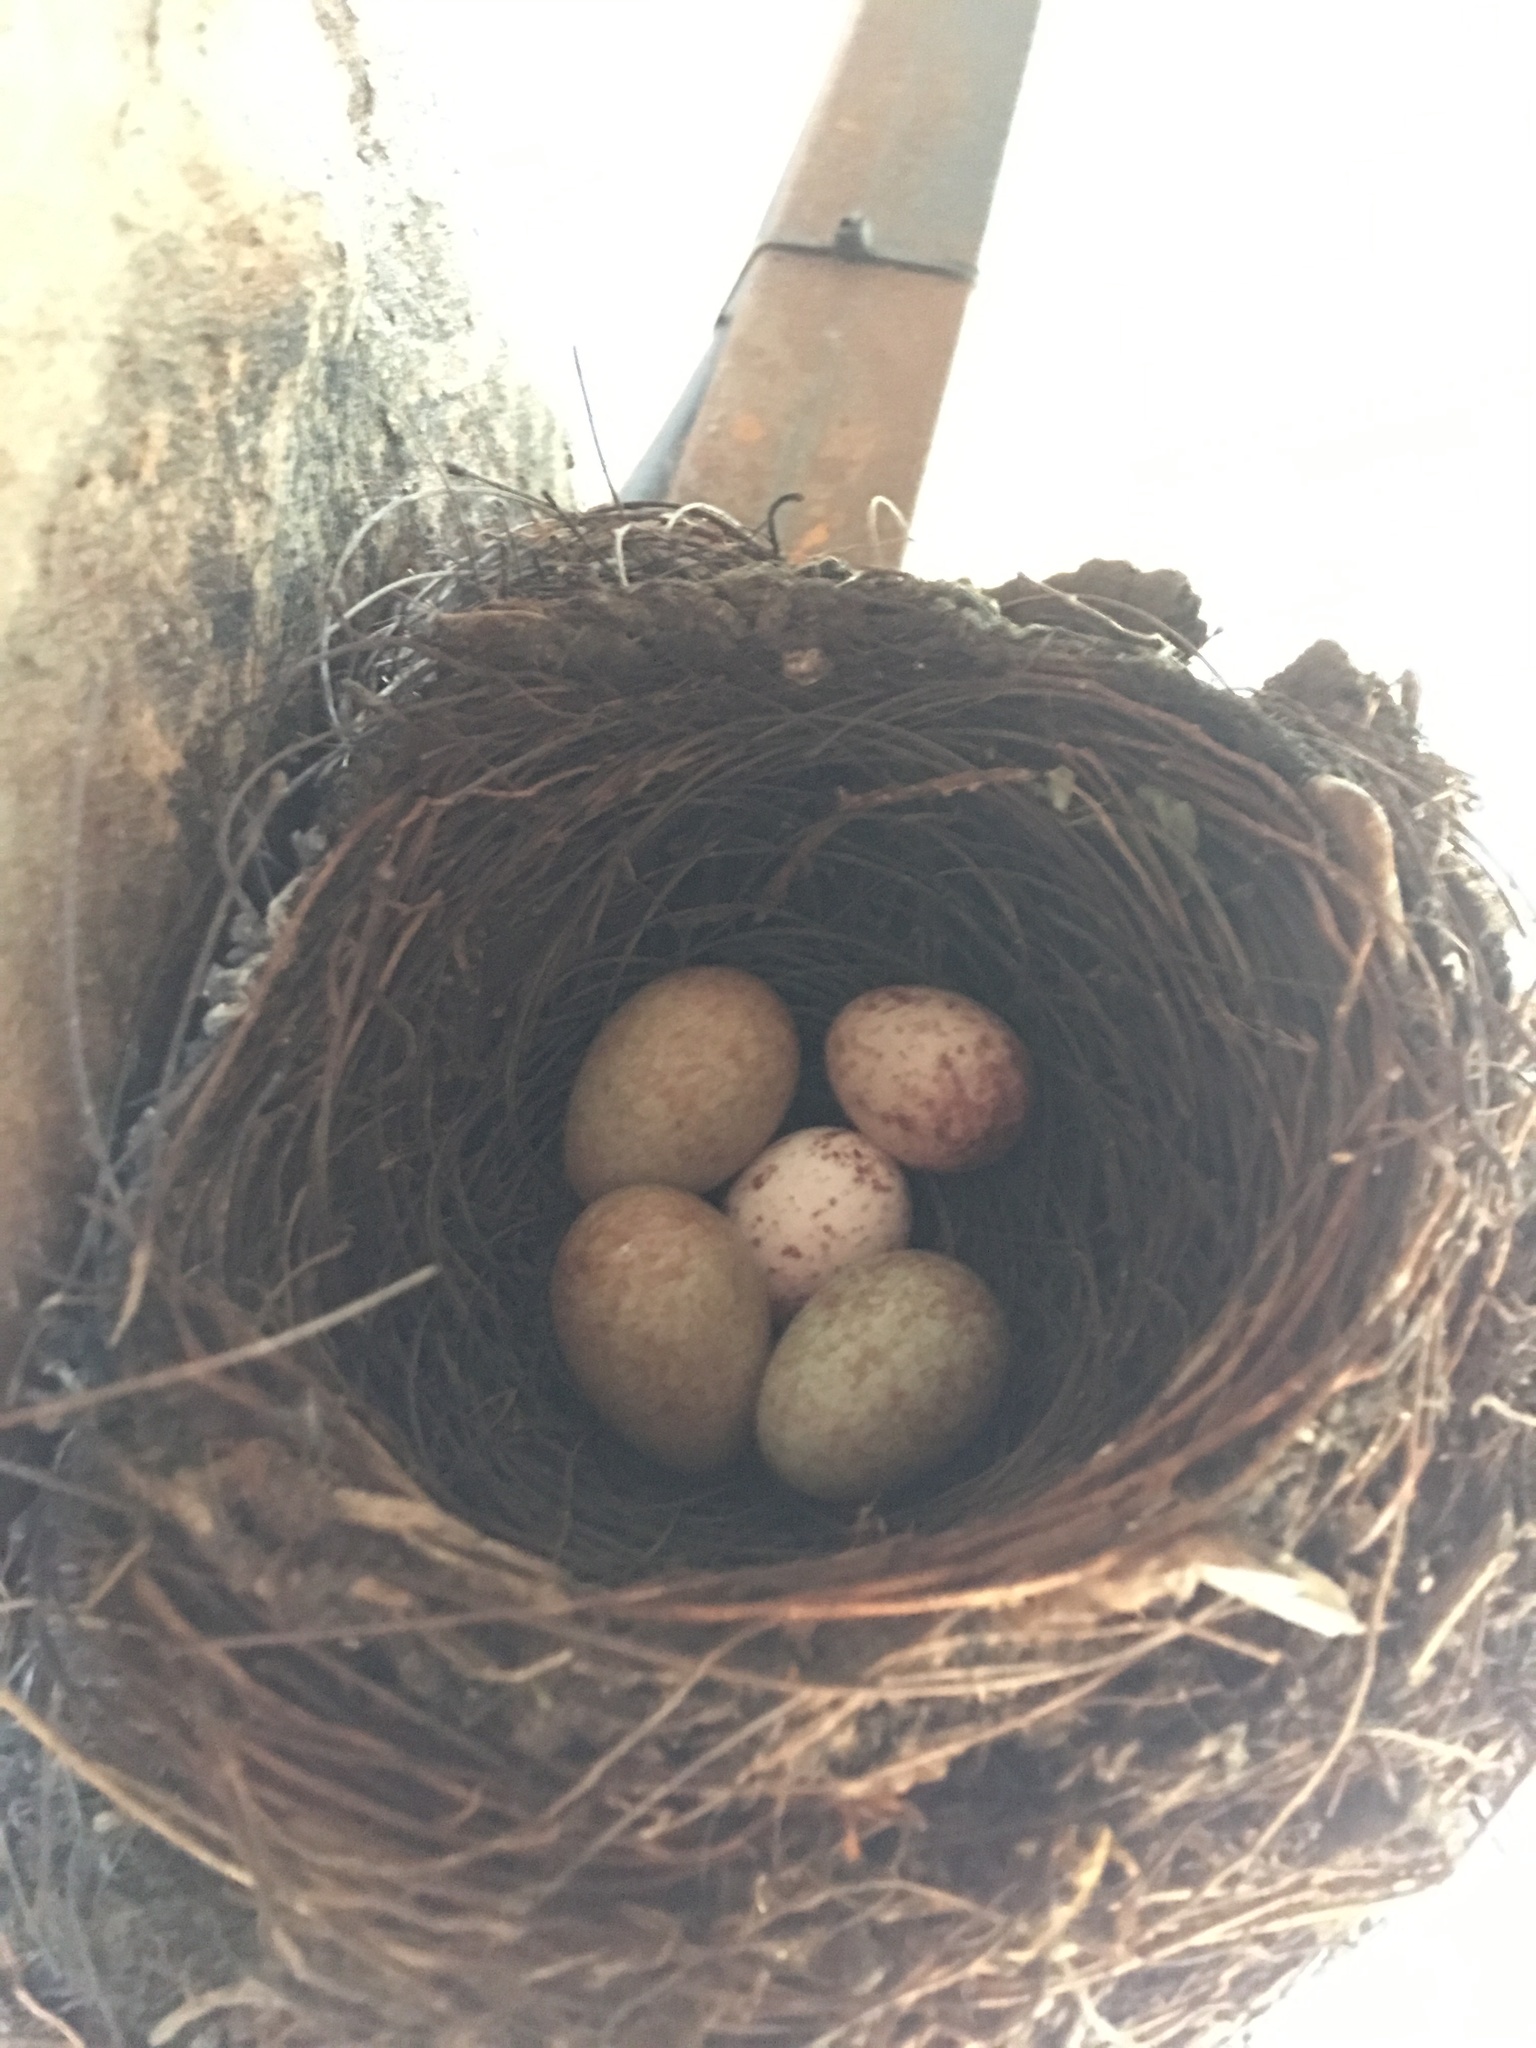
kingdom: Animalia
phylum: Chordata
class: Aves
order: Passeriformes
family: Icteridae
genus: Molothrus
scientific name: Molothrus bonariensis
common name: Shiny cowbird
